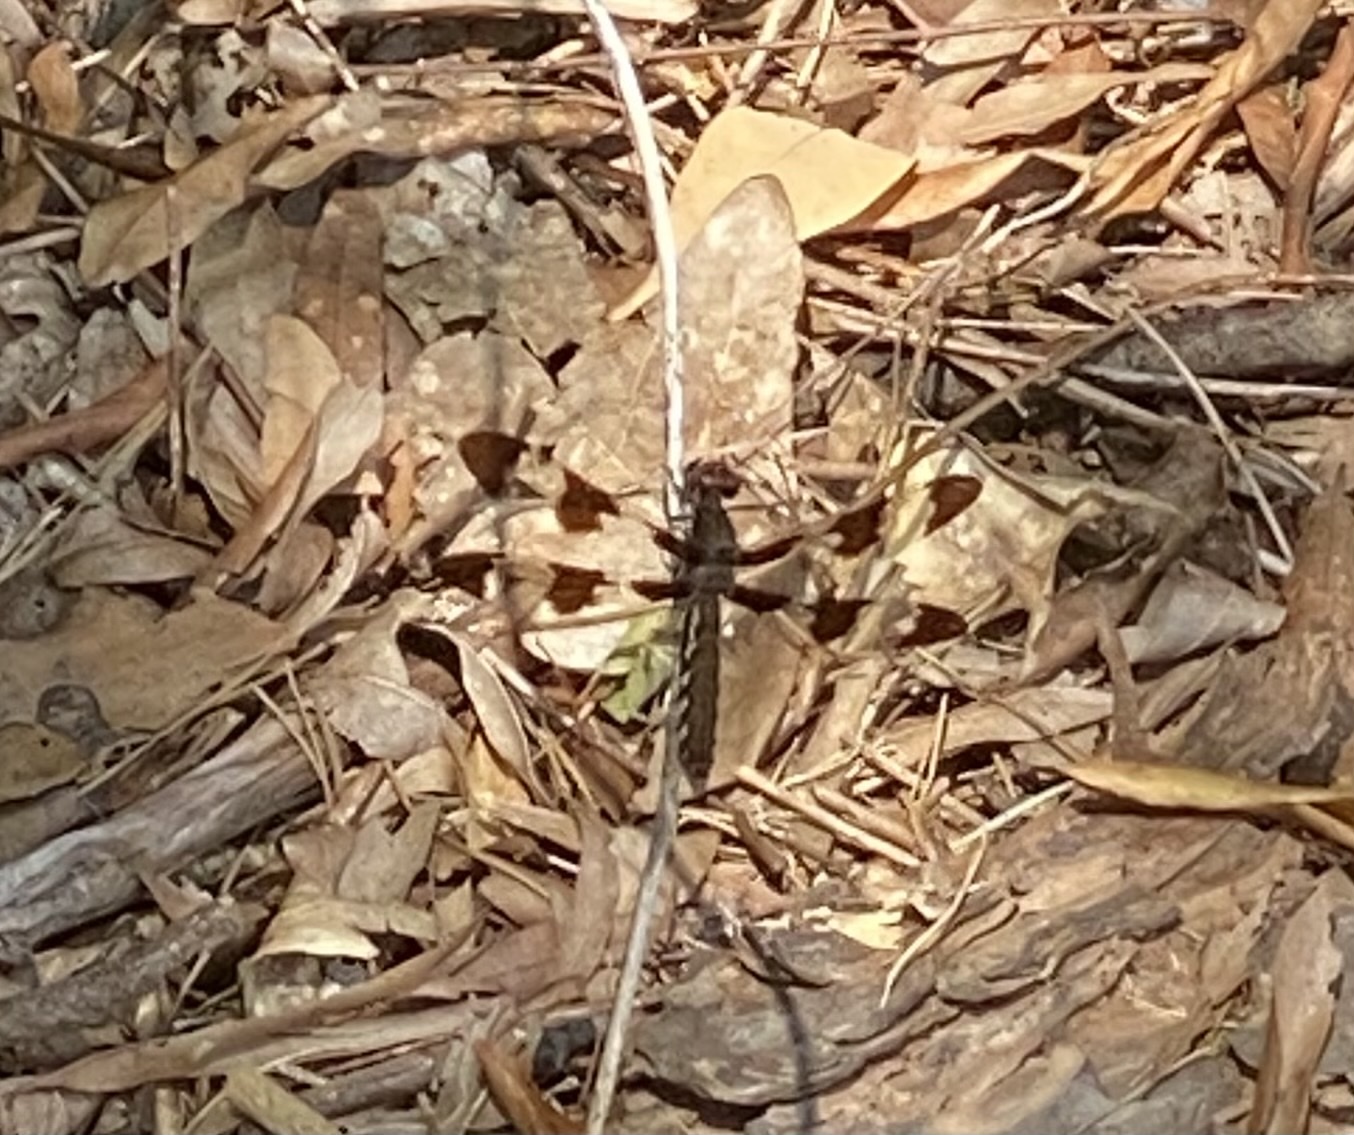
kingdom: Animalia
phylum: Arthropoda
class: Insecta
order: Odonata
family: Libellulidae
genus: Plathemis
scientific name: Plathemis lydia
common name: Common whitetail
